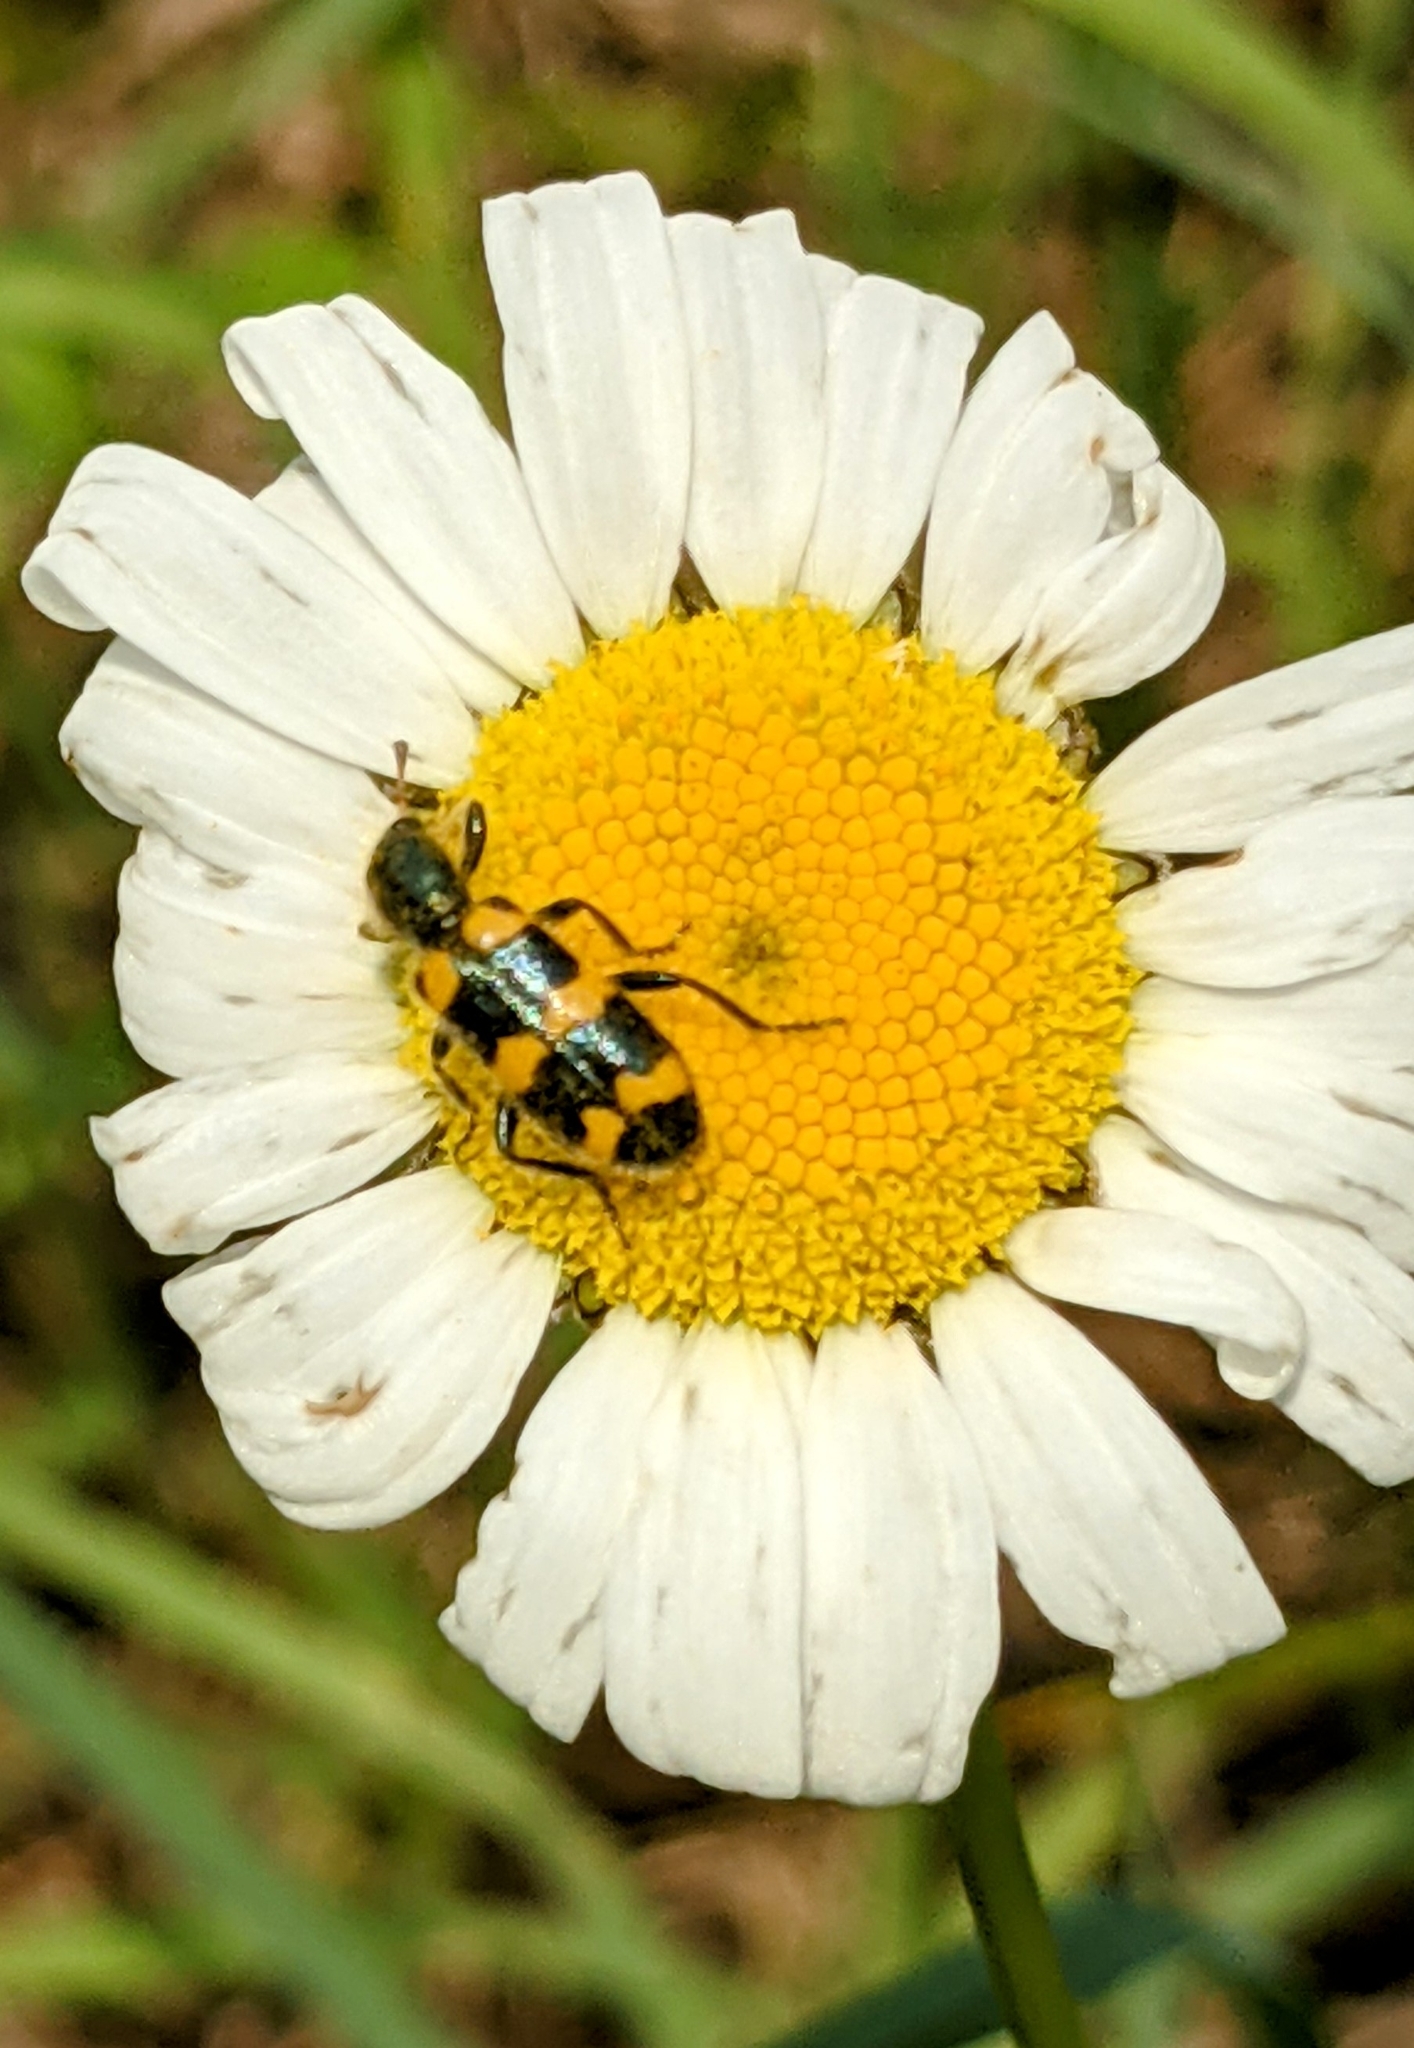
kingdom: Animalia
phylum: Arthropoda
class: Insecta
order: Coleoptera
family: Cleridae
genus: Trichodes
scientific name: Trichodes nutalli
